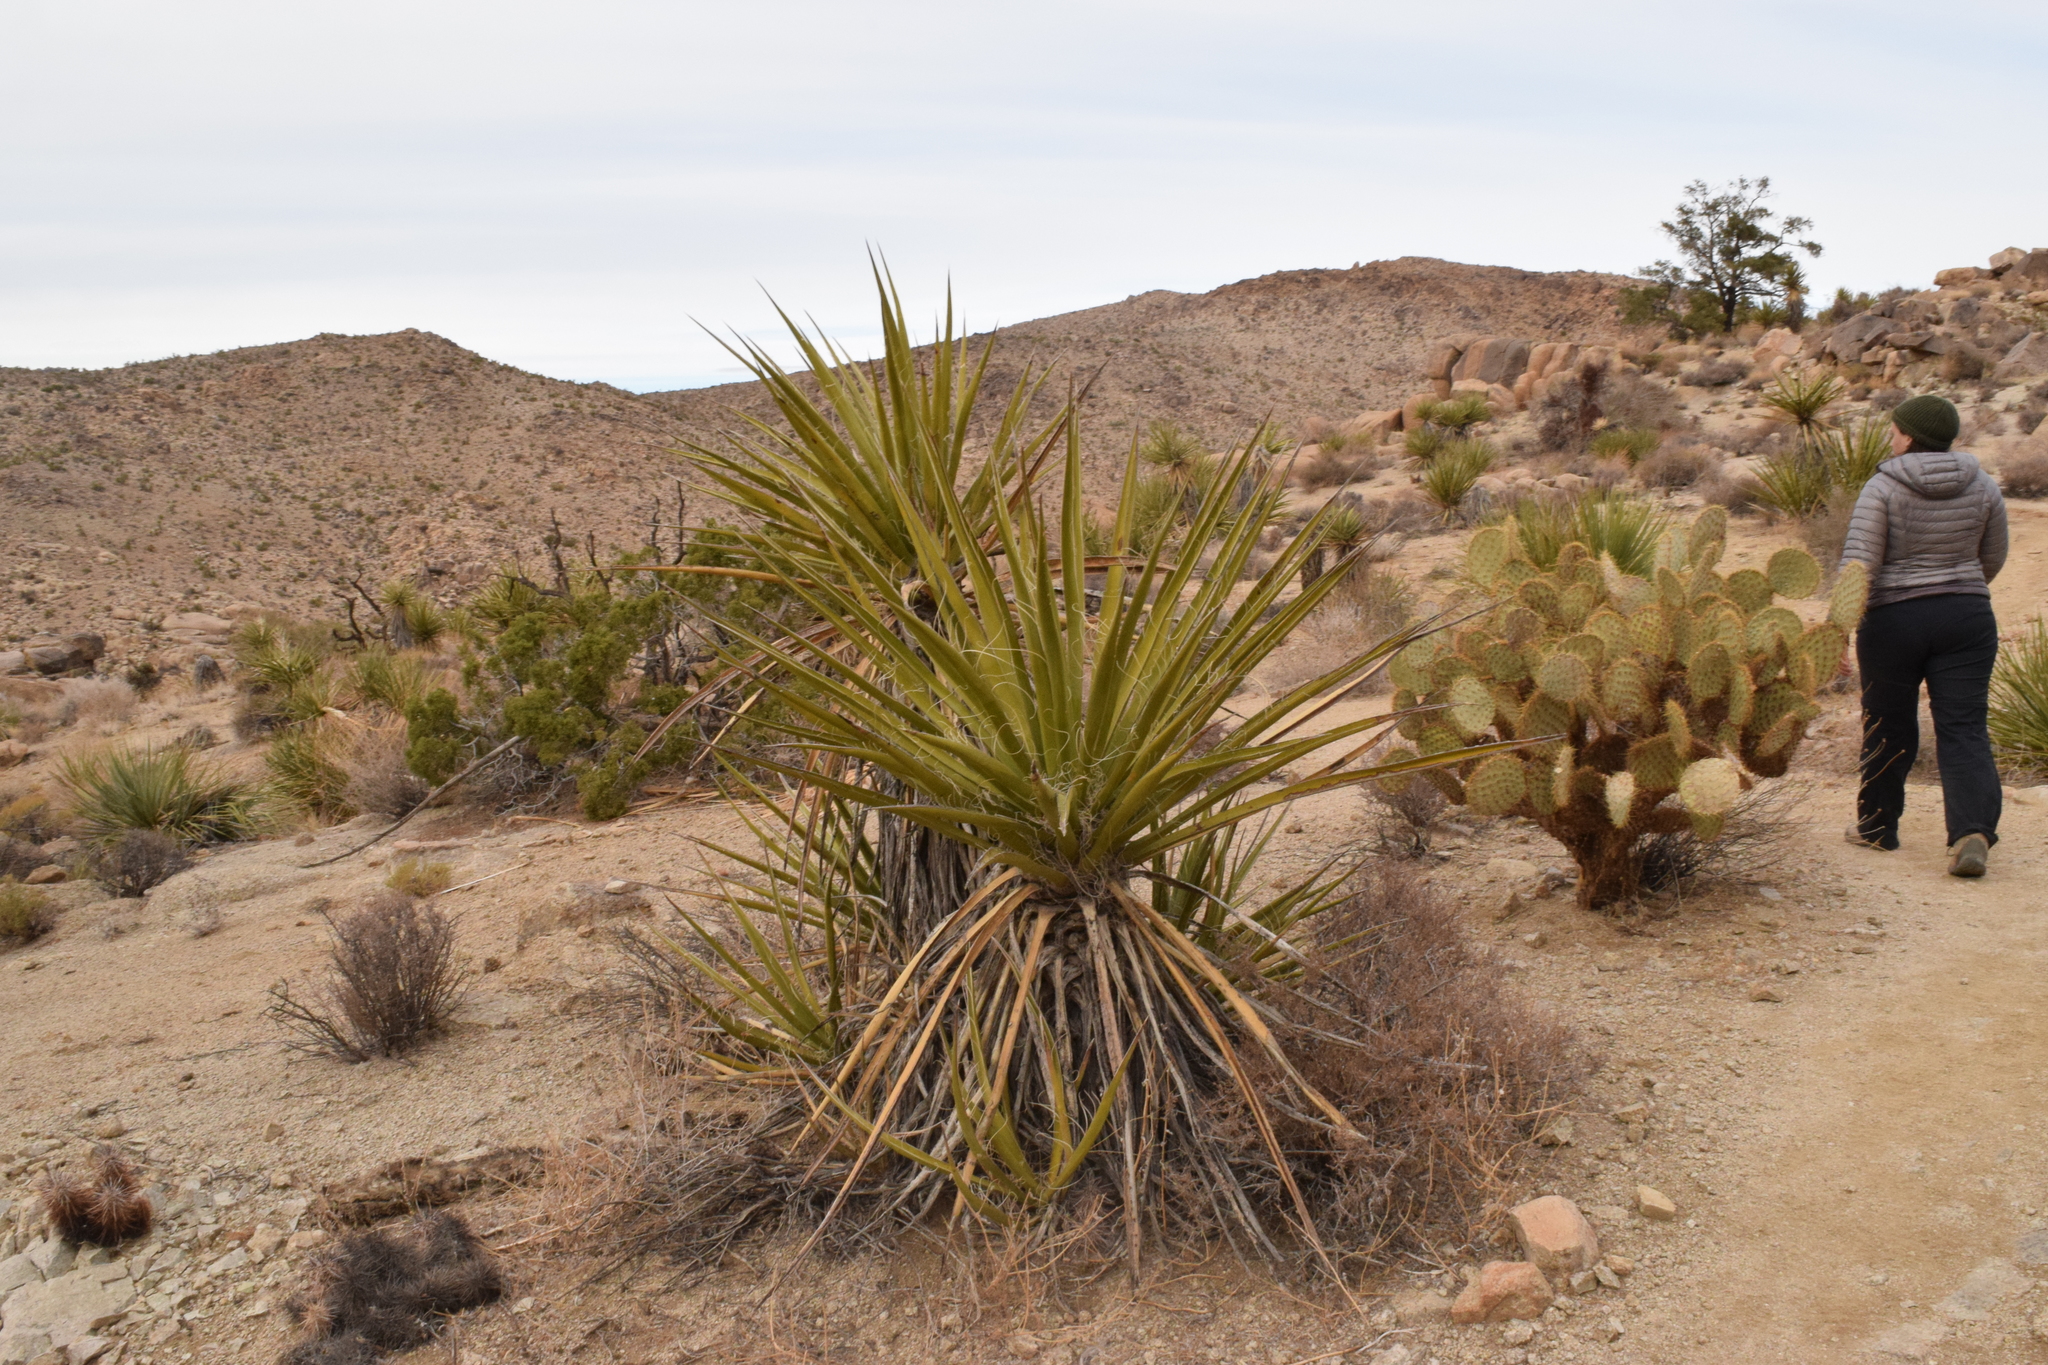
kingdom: Plantae
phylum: Tracheophyta
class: Liliopsida
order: Asparagales
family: Asparagaceae
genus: Yucca
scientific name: Yucca schidigera
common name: Mojave yucca
